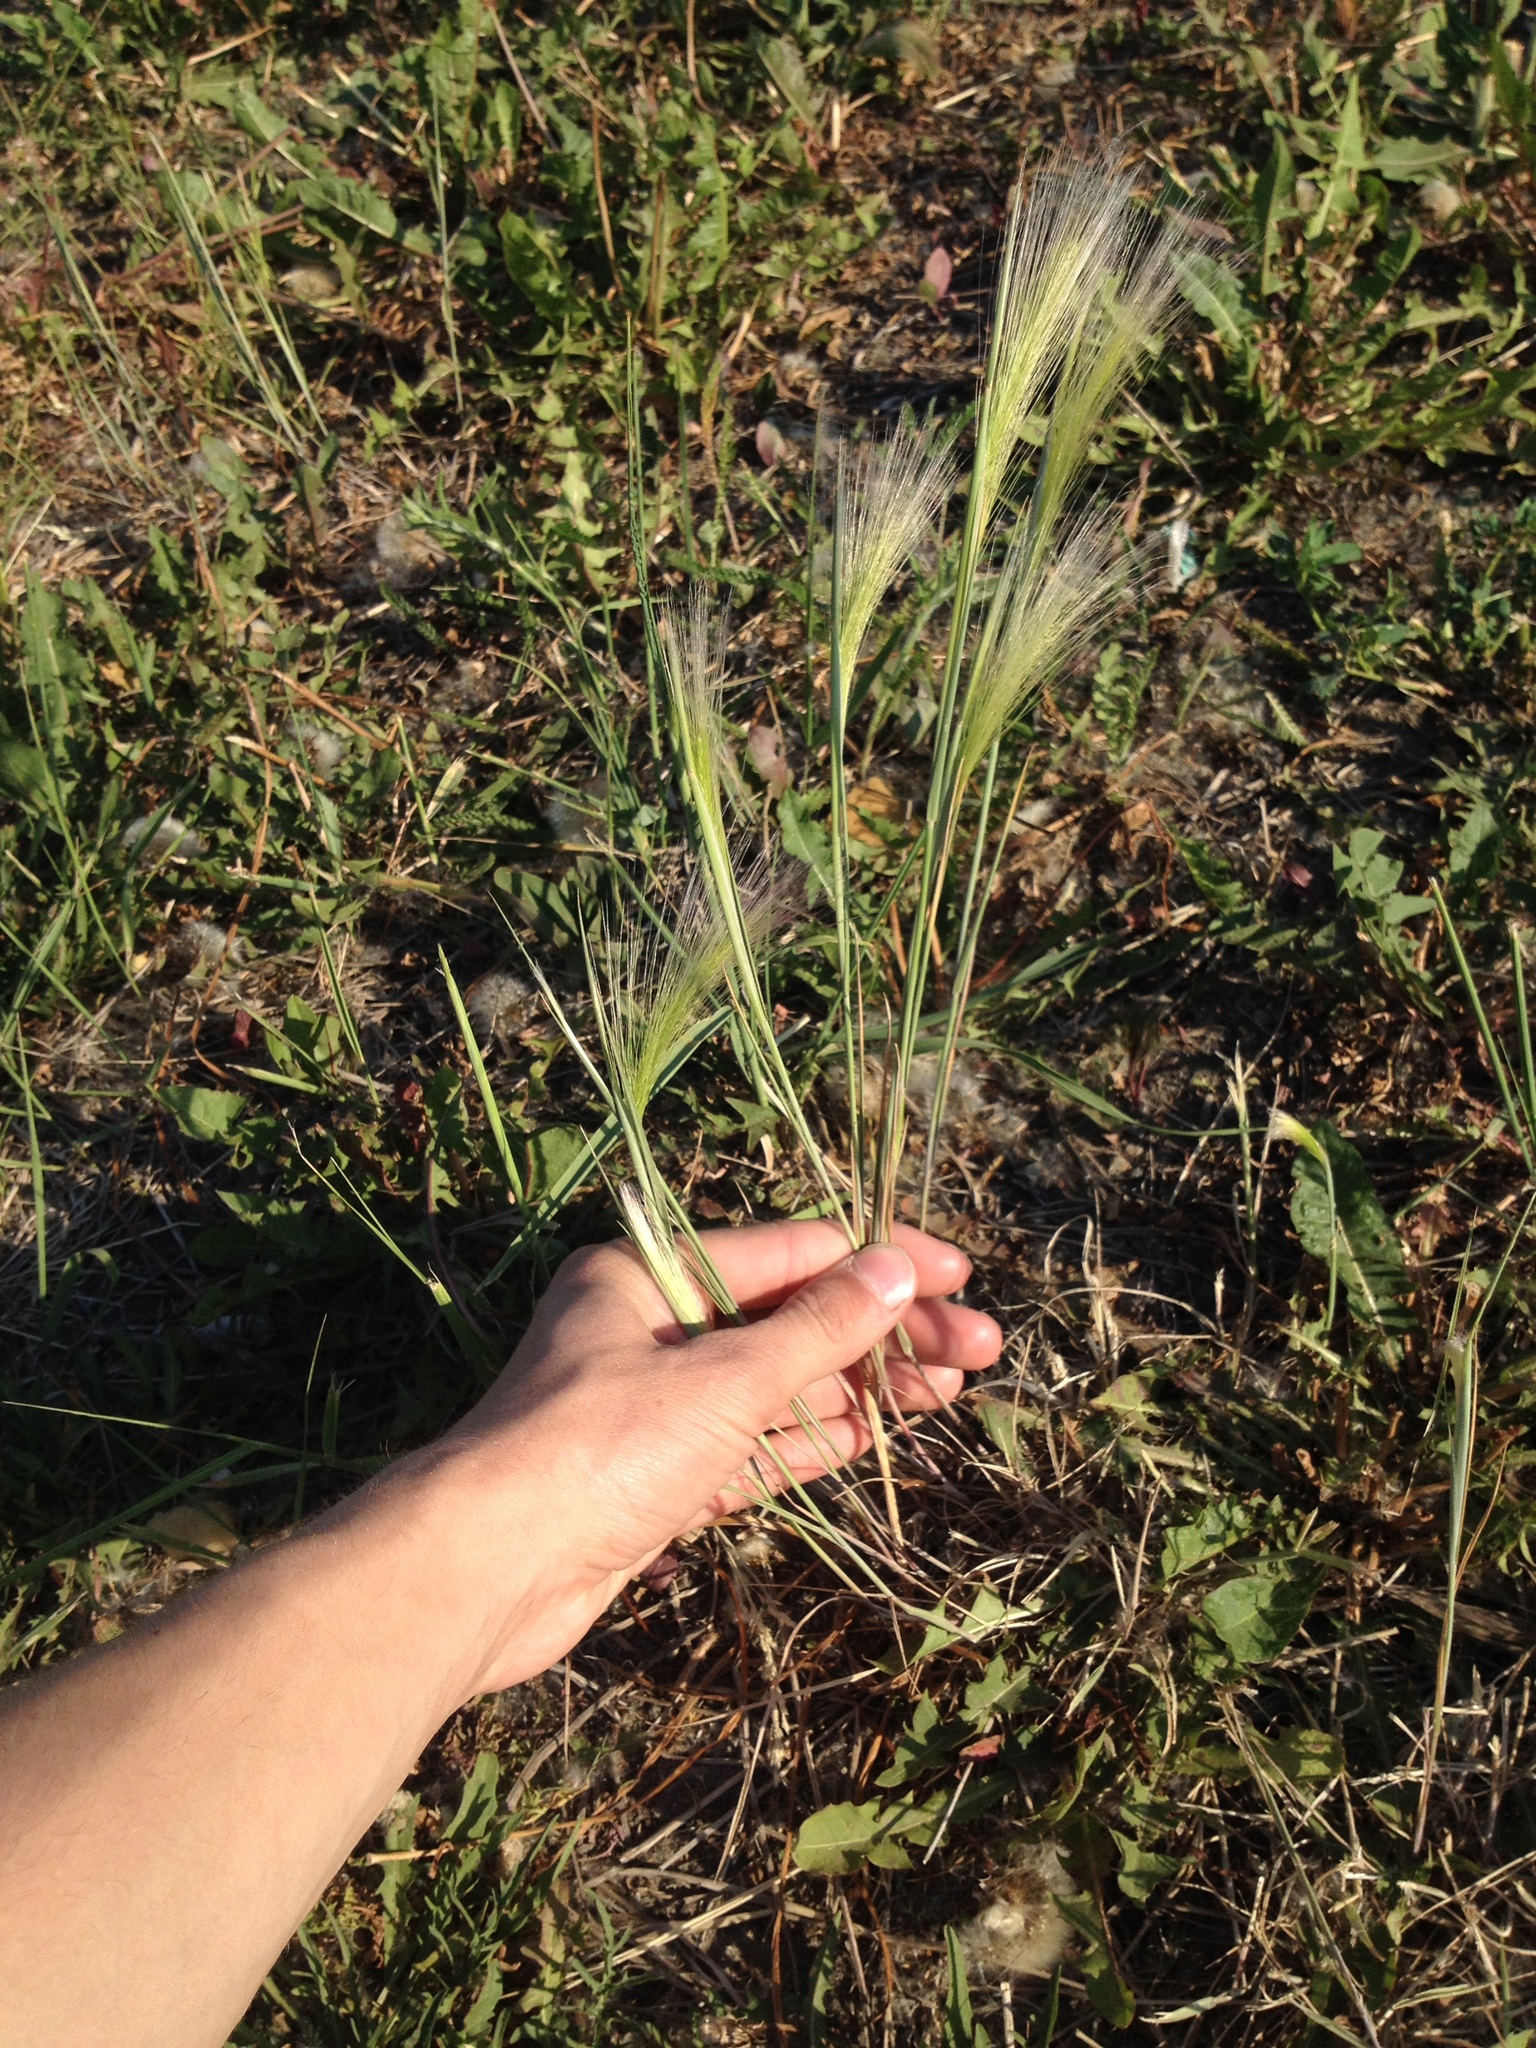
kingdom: Plantae
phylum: Tracheophyta
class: Liliopsida
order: Poales
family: Poaceae
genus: Hordeum
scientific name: Hordeum jubatum
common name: Foxtail barley
